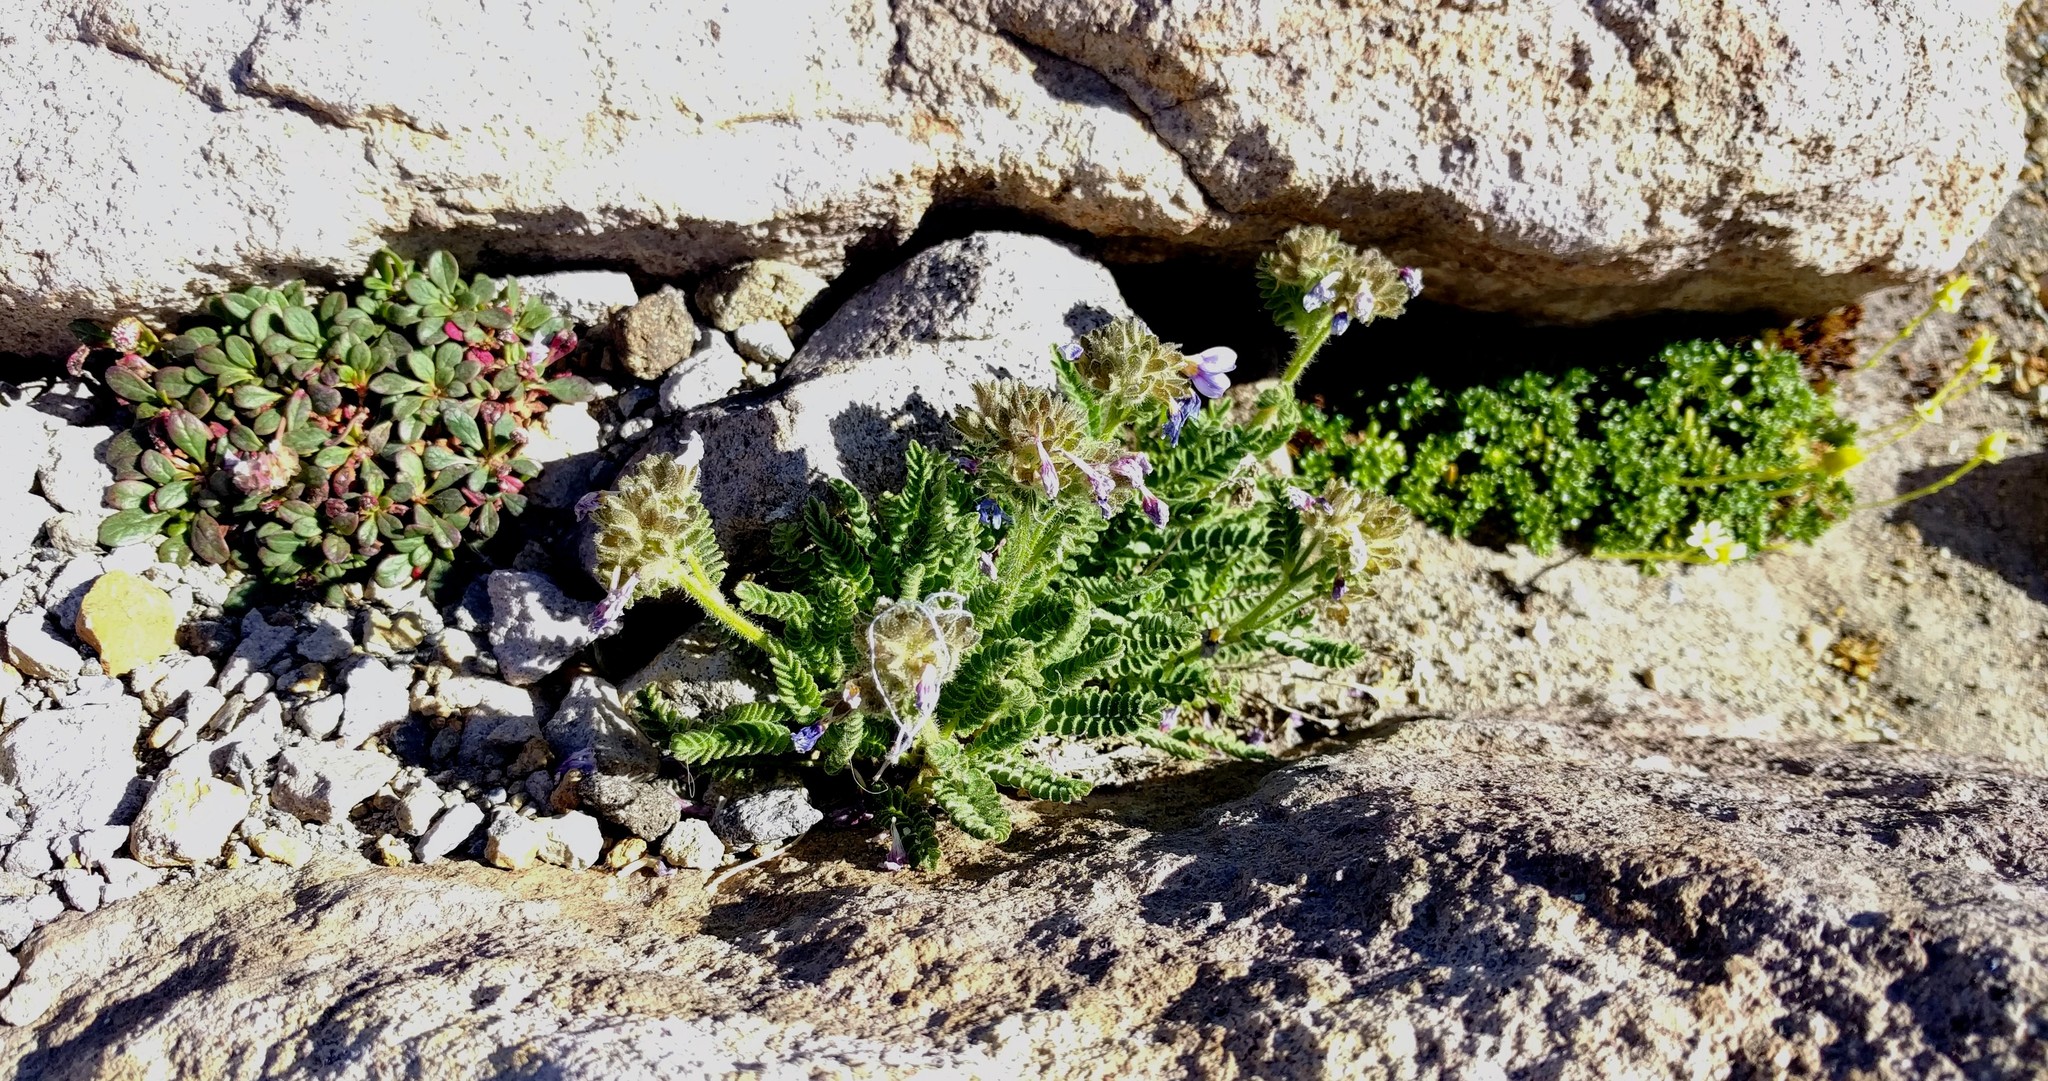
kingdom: Plantae
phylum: Tracheophyta
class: Magnoliopsida
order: Caryophyllales
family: Montiaceae
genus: Calyptridium
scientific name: Calyptridium umbellatum
